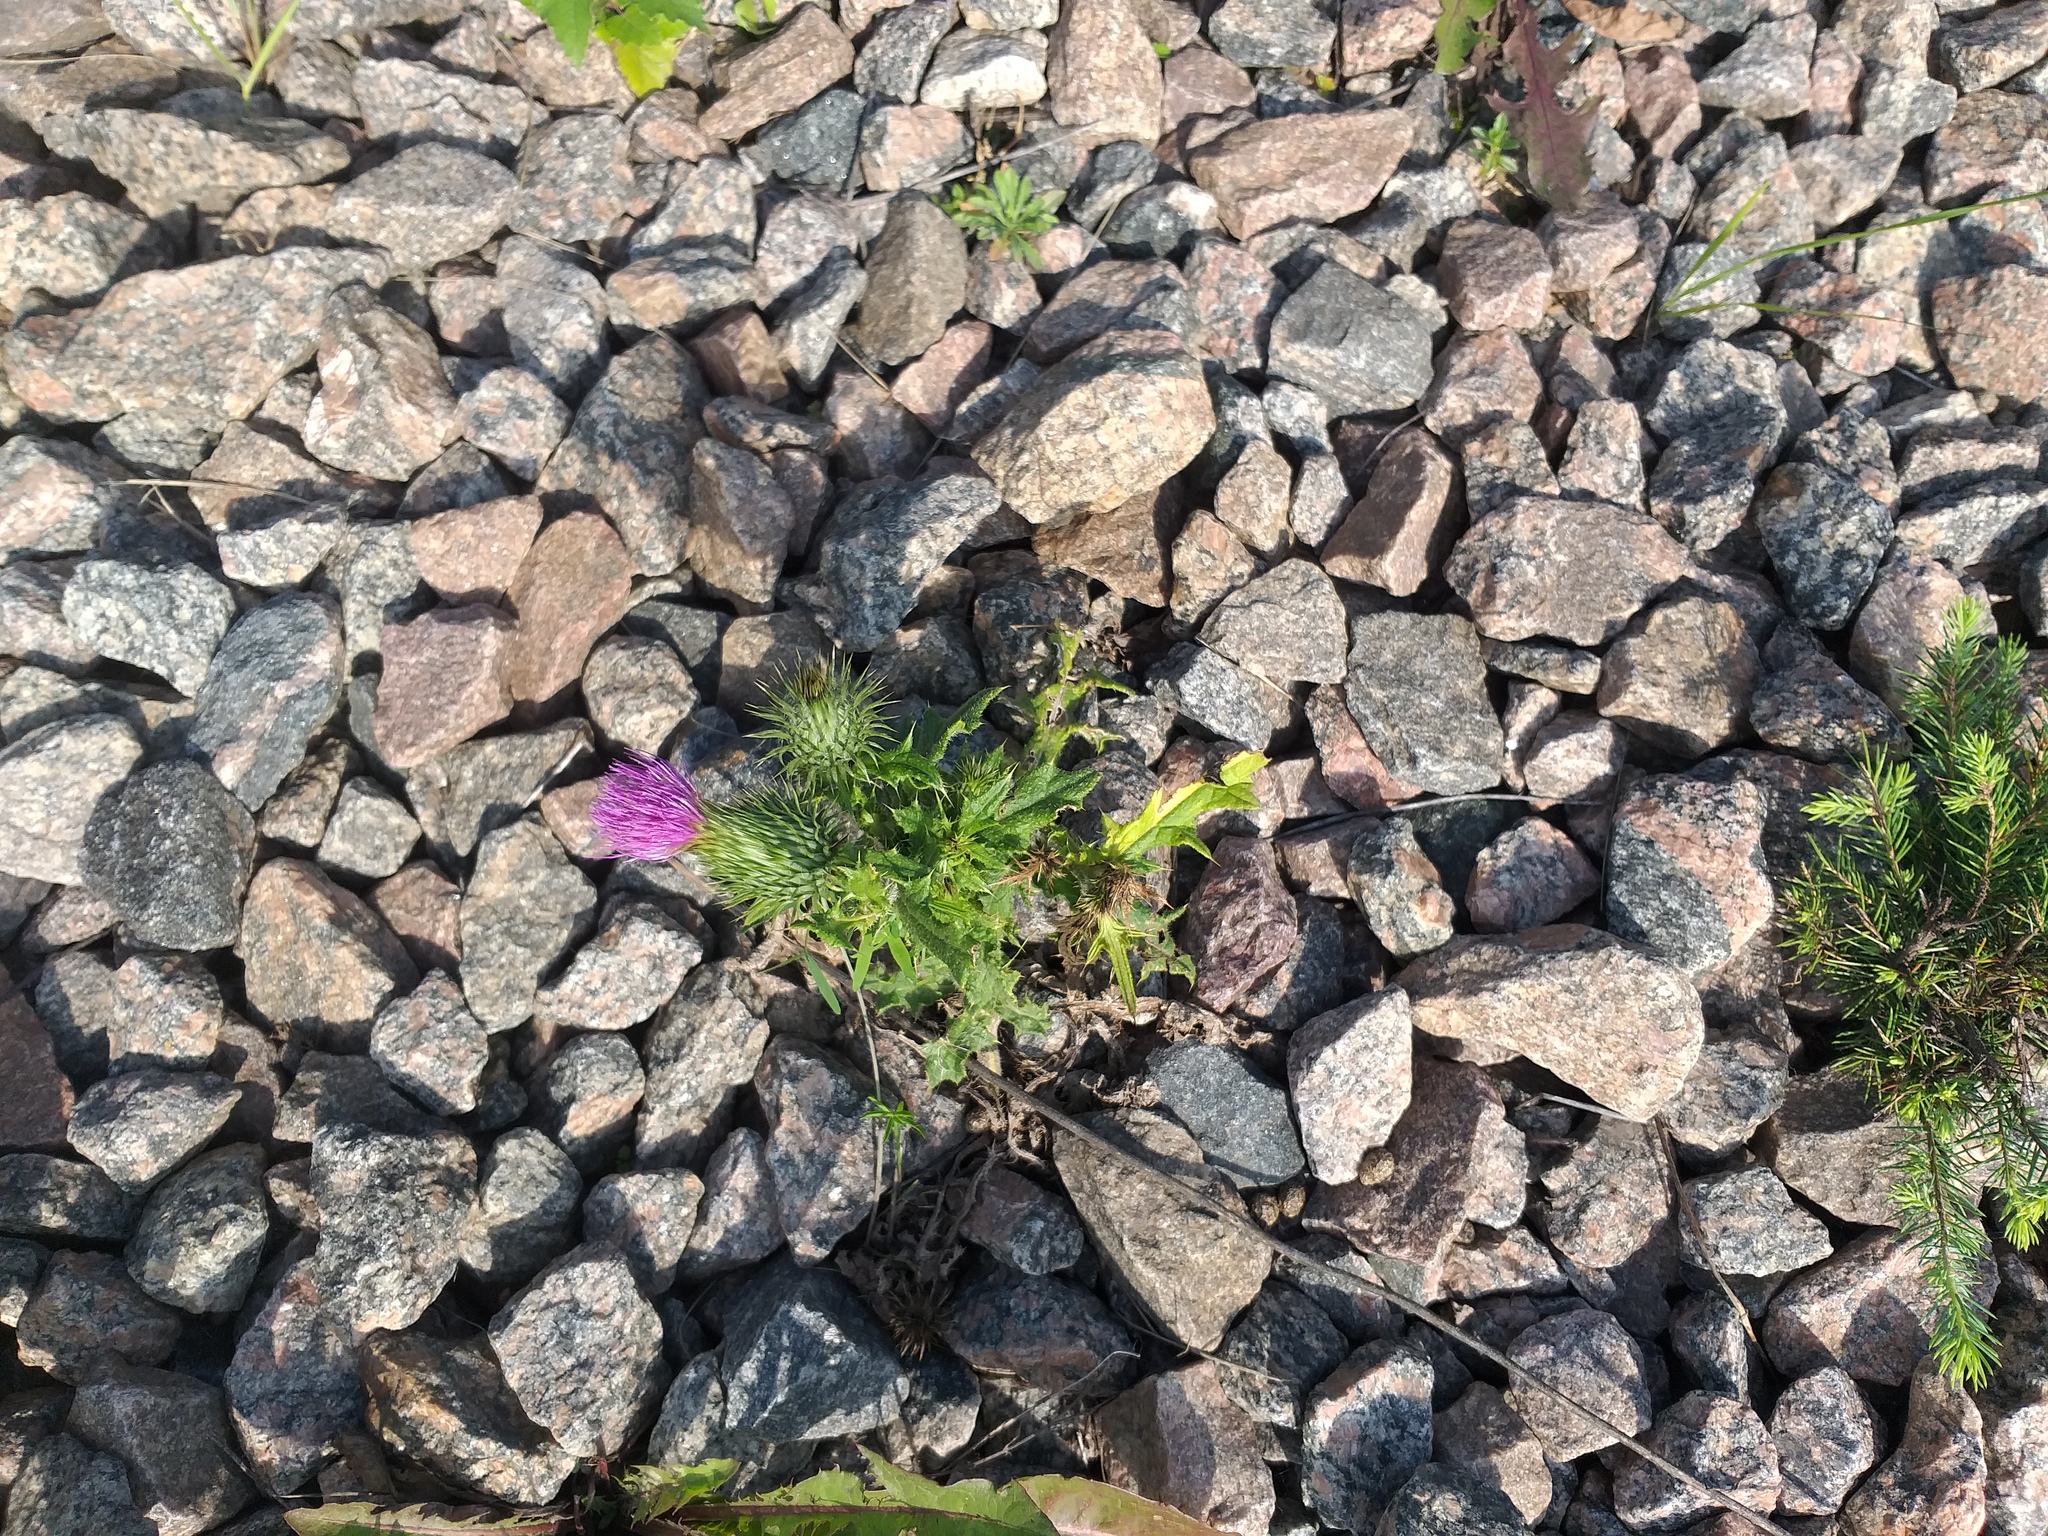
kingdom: Plantae
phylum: Tracheophyta
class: Magnoliopsida
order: Asterales
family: Asteraceae
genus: Cirsium
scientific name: Cirsium vulgare
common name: Bull thistle
